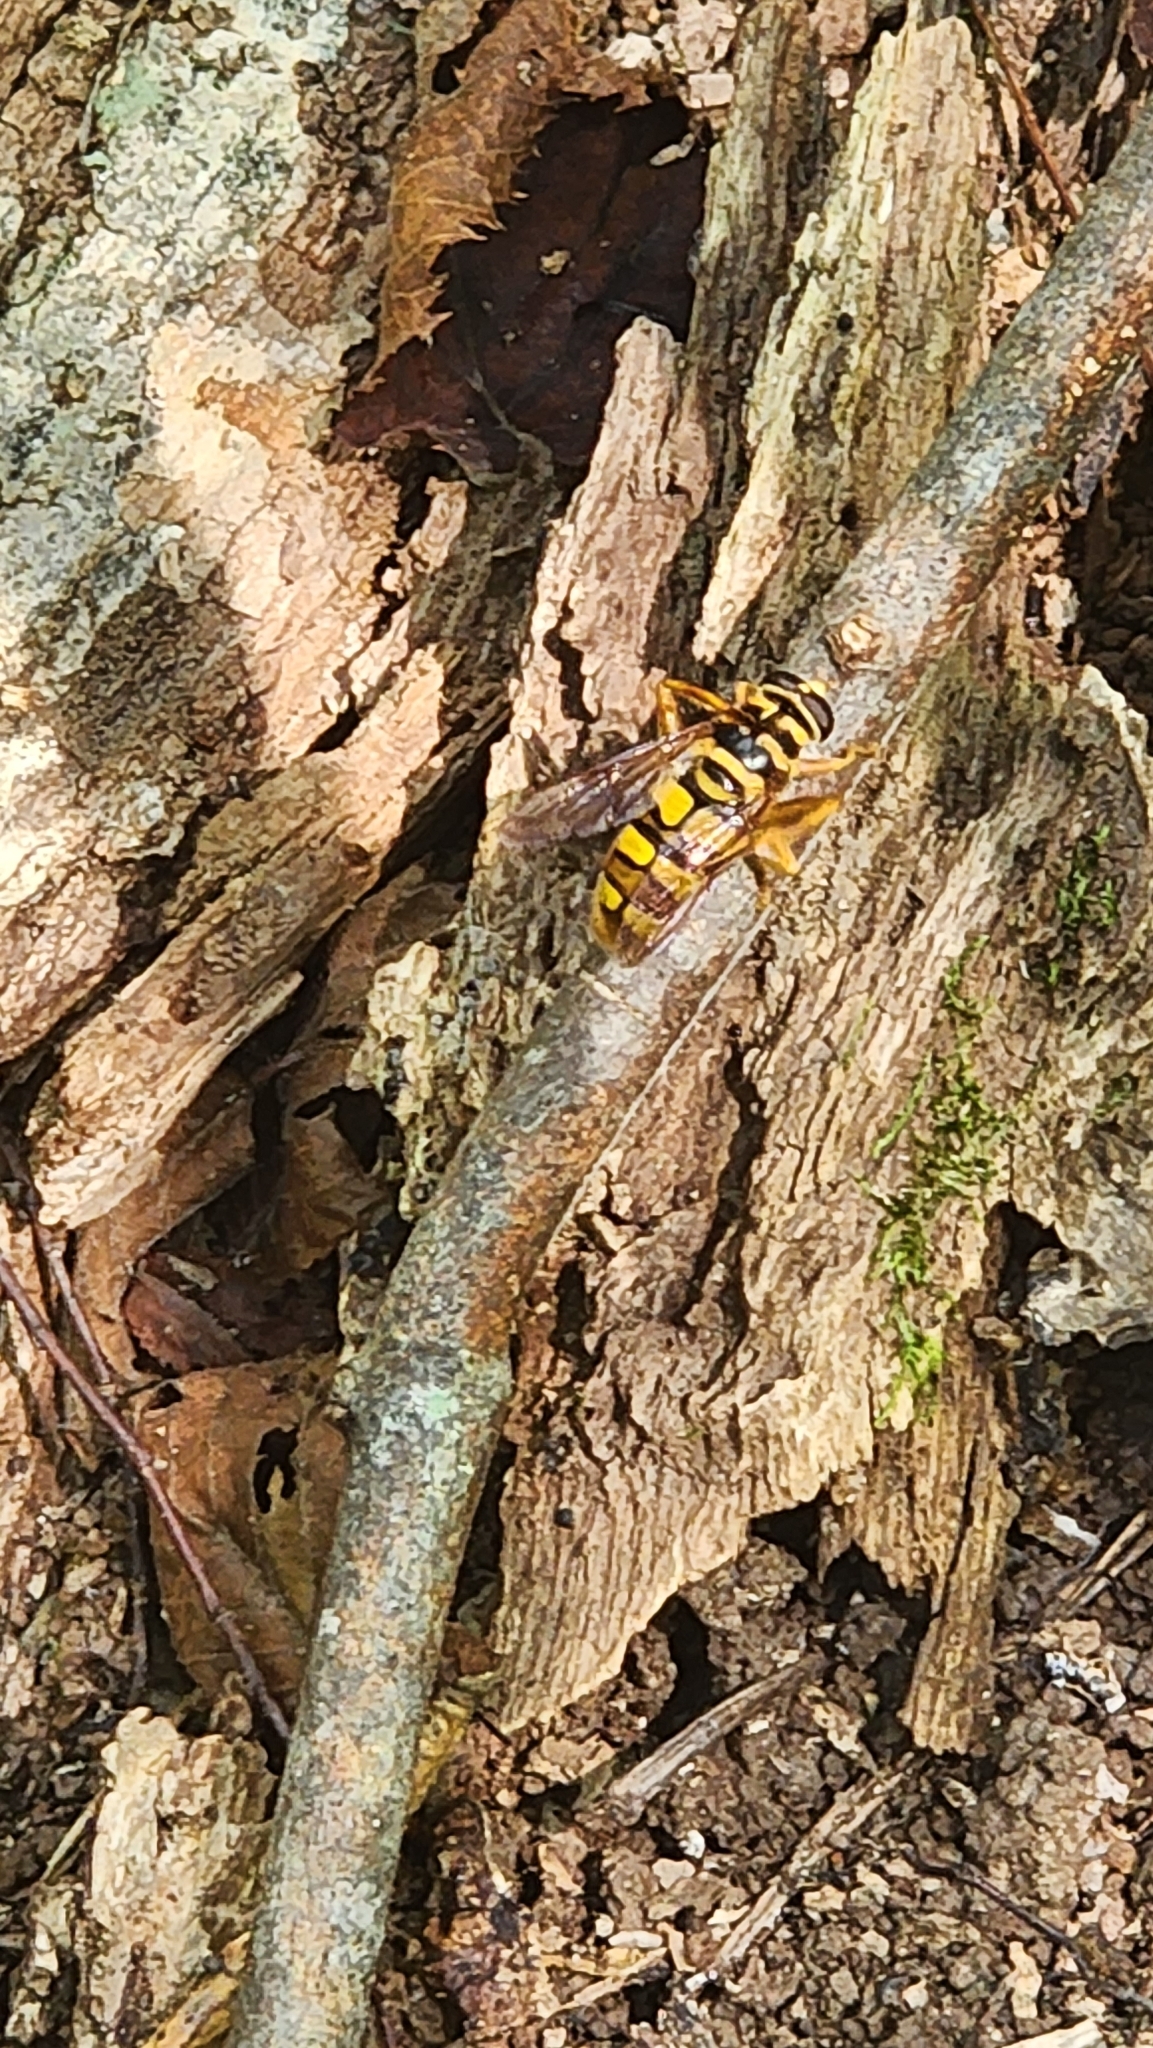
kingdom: Animalia
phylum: Arthropoda
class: Insecta
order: Diptera
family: Syrphidae
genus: Milesia
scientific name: Milesia virginiensis
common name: Virginia giant
